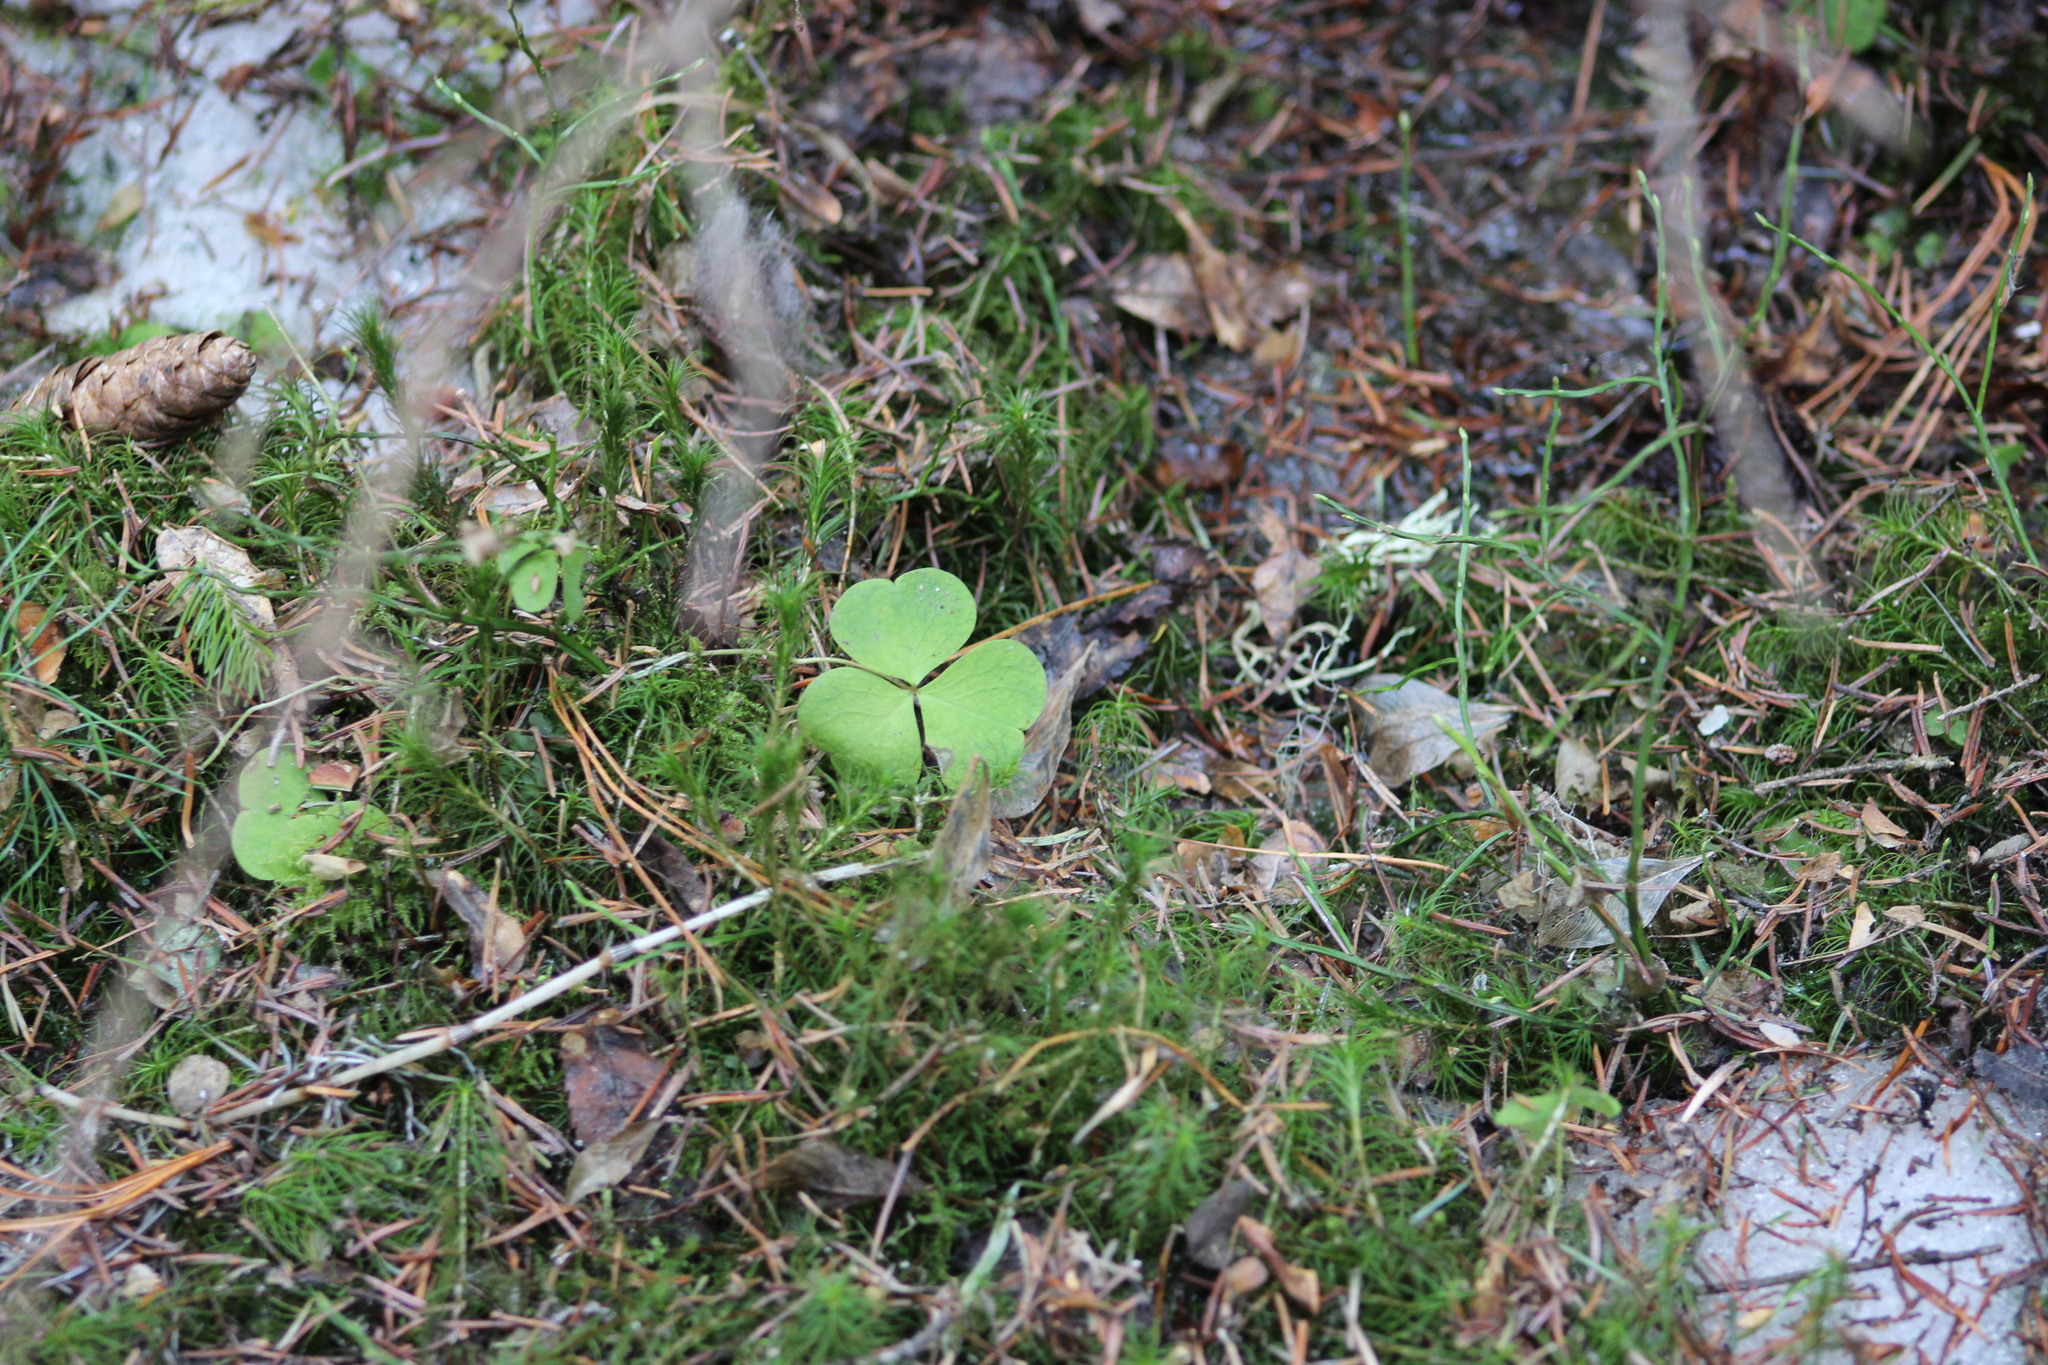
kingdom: Plantae
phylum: Tracheophyta
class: Magnoliopsida
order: Oxalidales
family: Oxalidaceae
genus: Oxalis
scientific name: Oxalis acetosella
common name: Wood-sorrel
